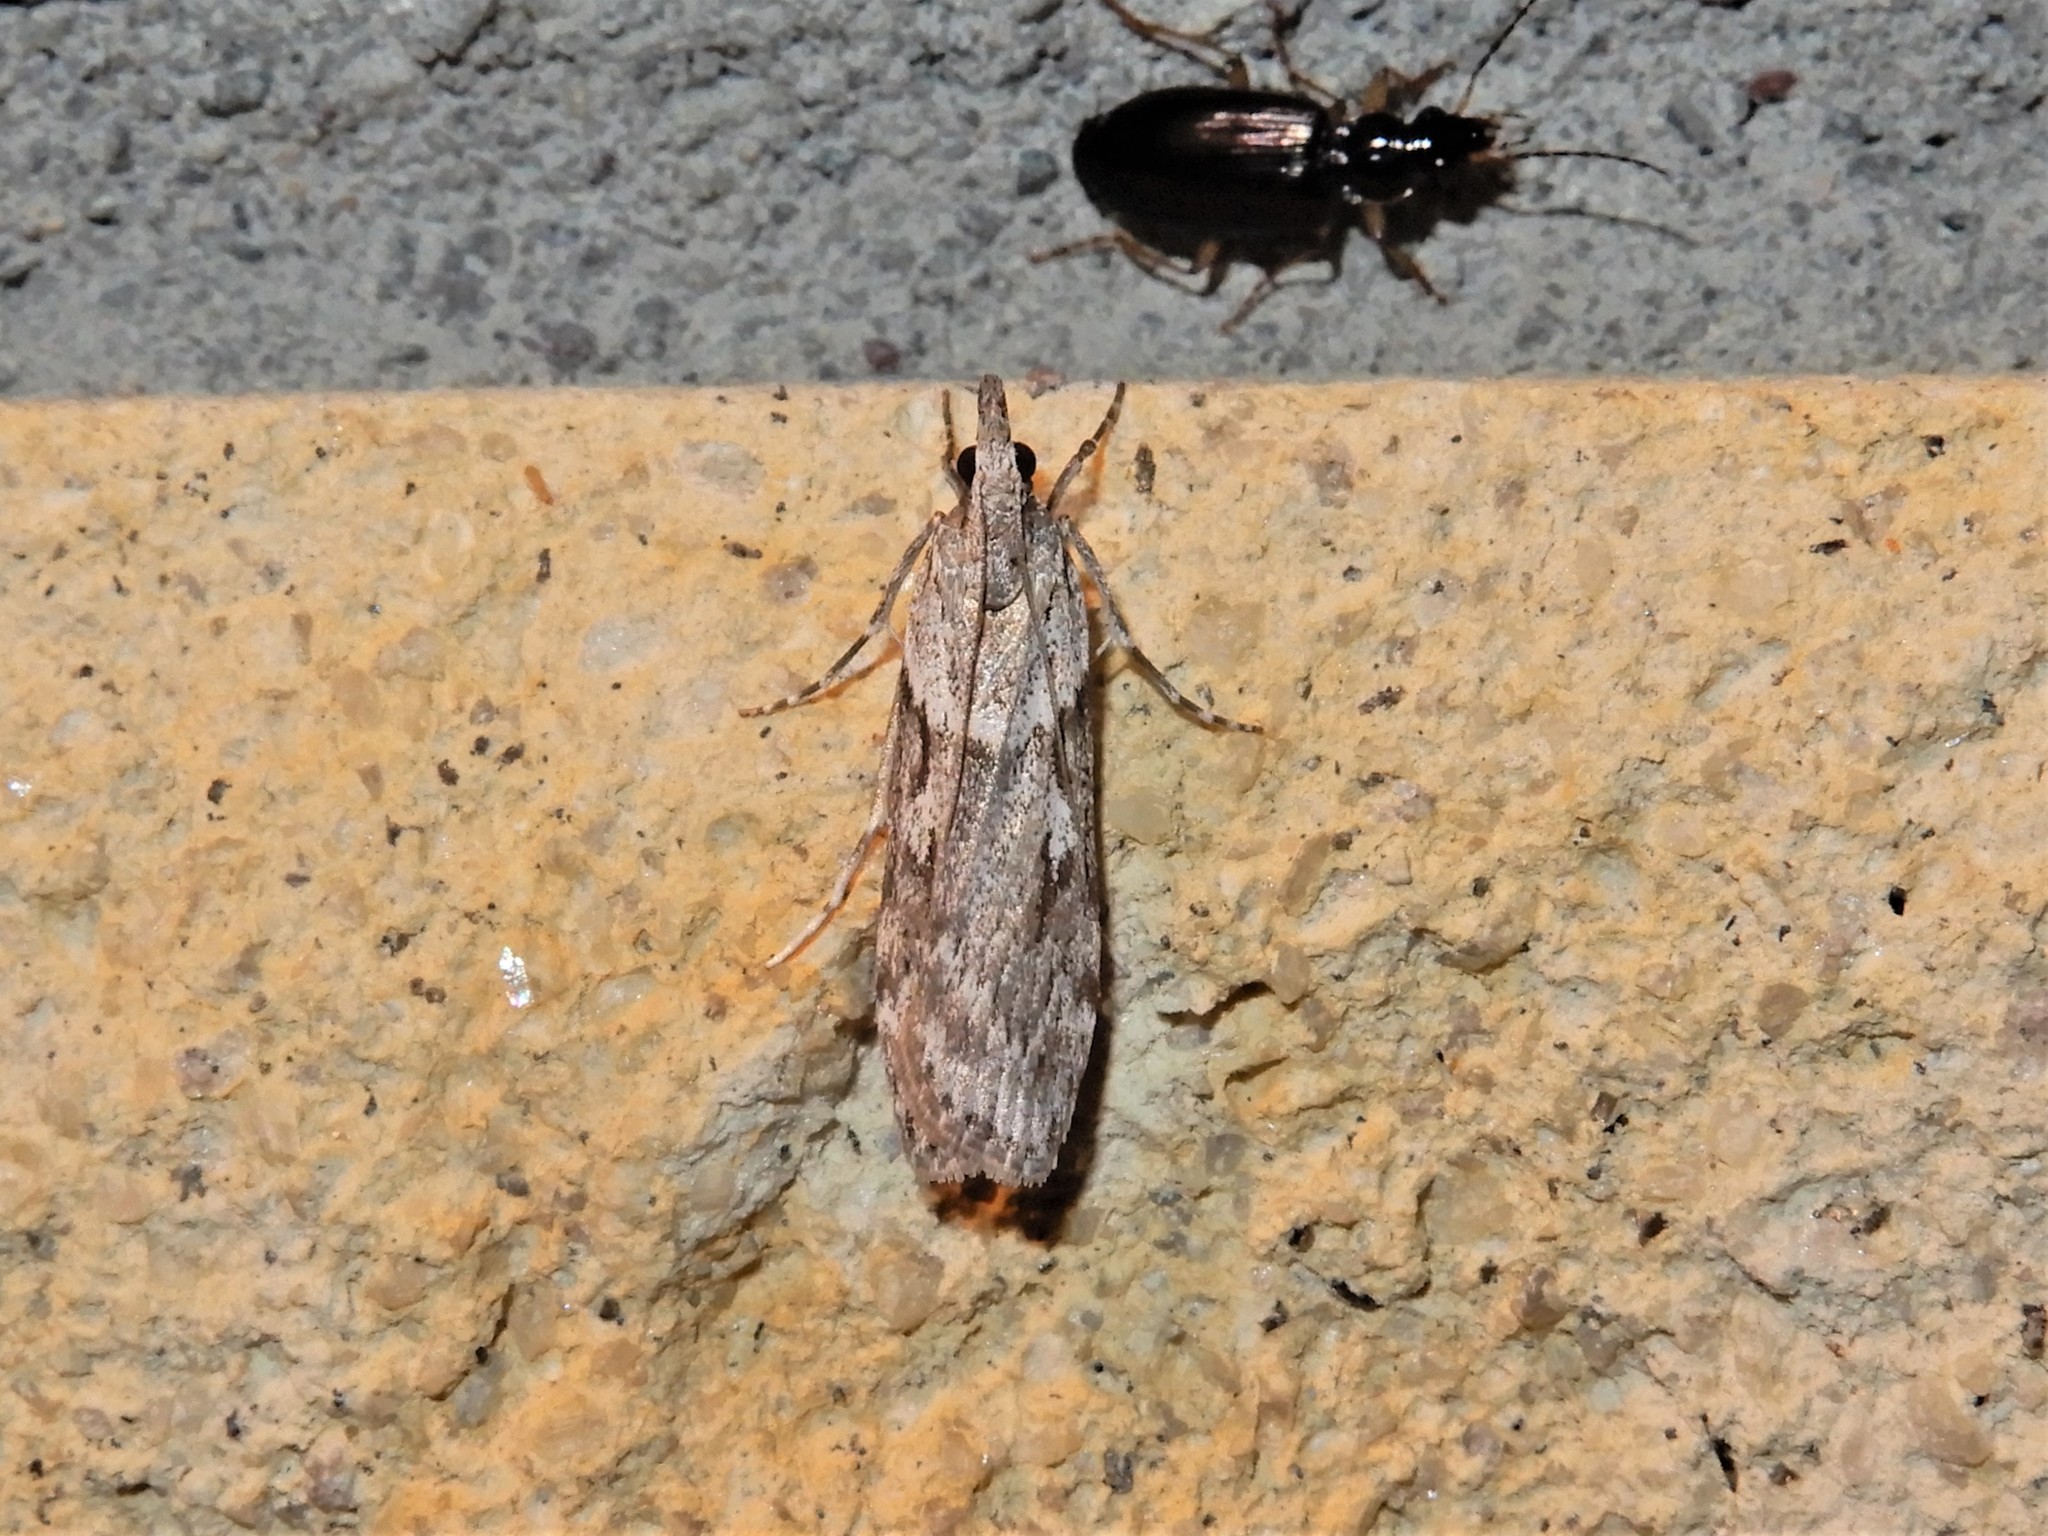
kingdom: Animalia
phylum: Arthropoda
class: Insecta
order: Lepidoptera
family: Crambidae
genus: Scoparia
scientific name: Scoparia halopis
